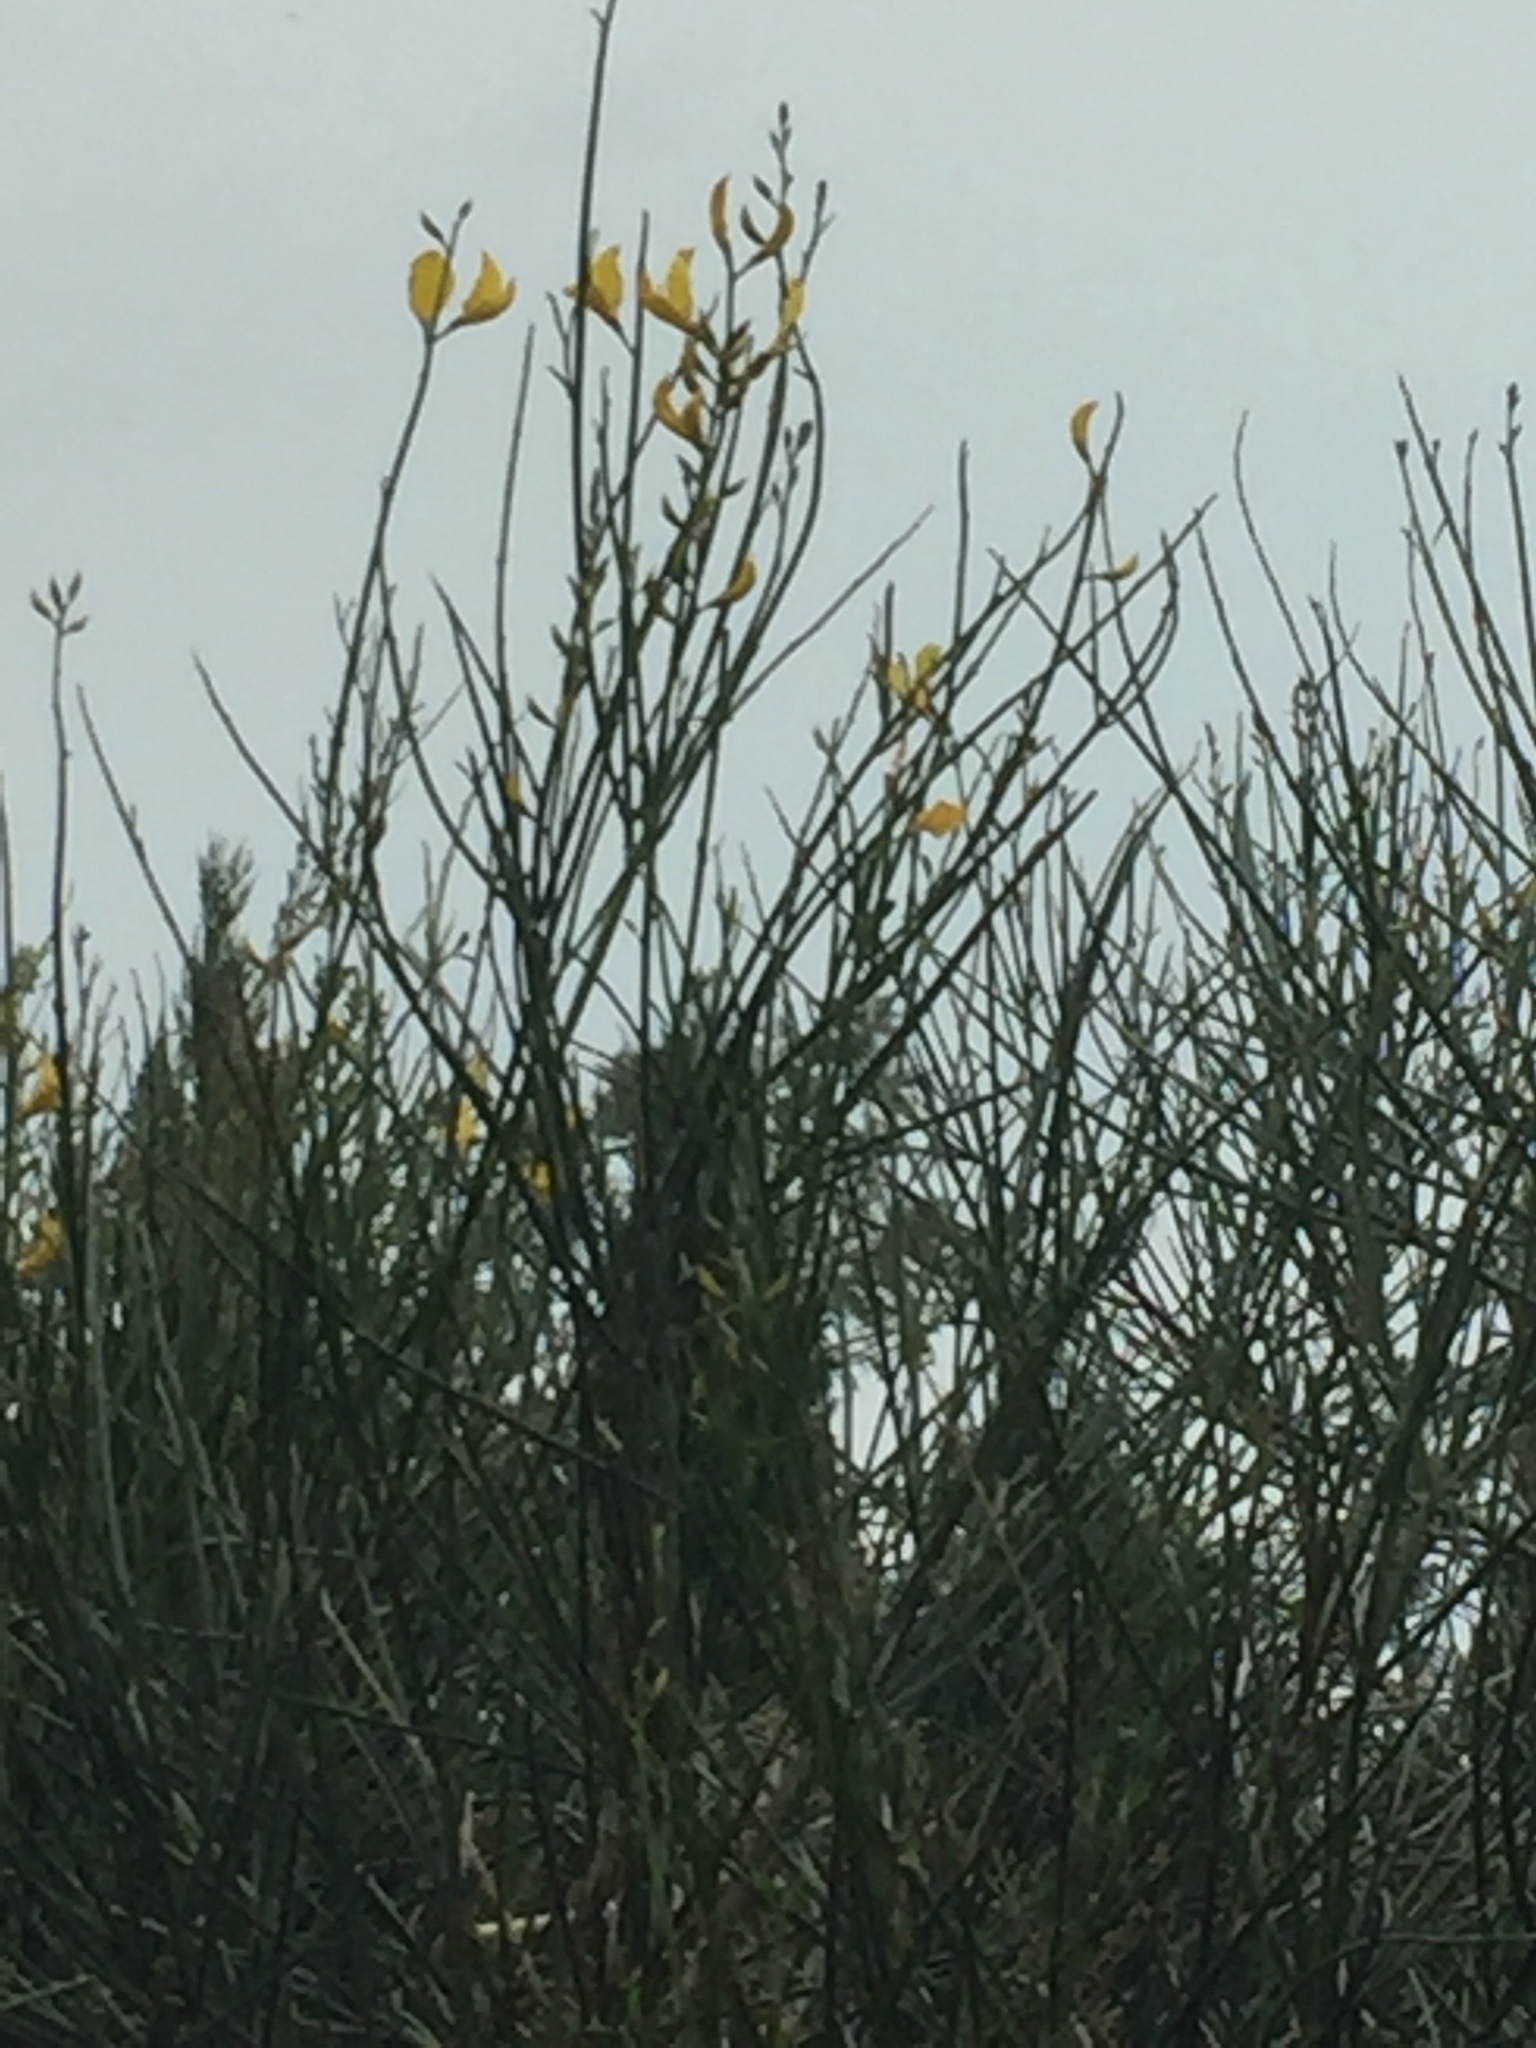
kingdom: Plantae
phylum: Tracheophyta
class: Magnoliopsida
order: Fabales
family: Fabaceae
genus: Spartium
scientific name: Spartium junceum
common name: Spanish broom
